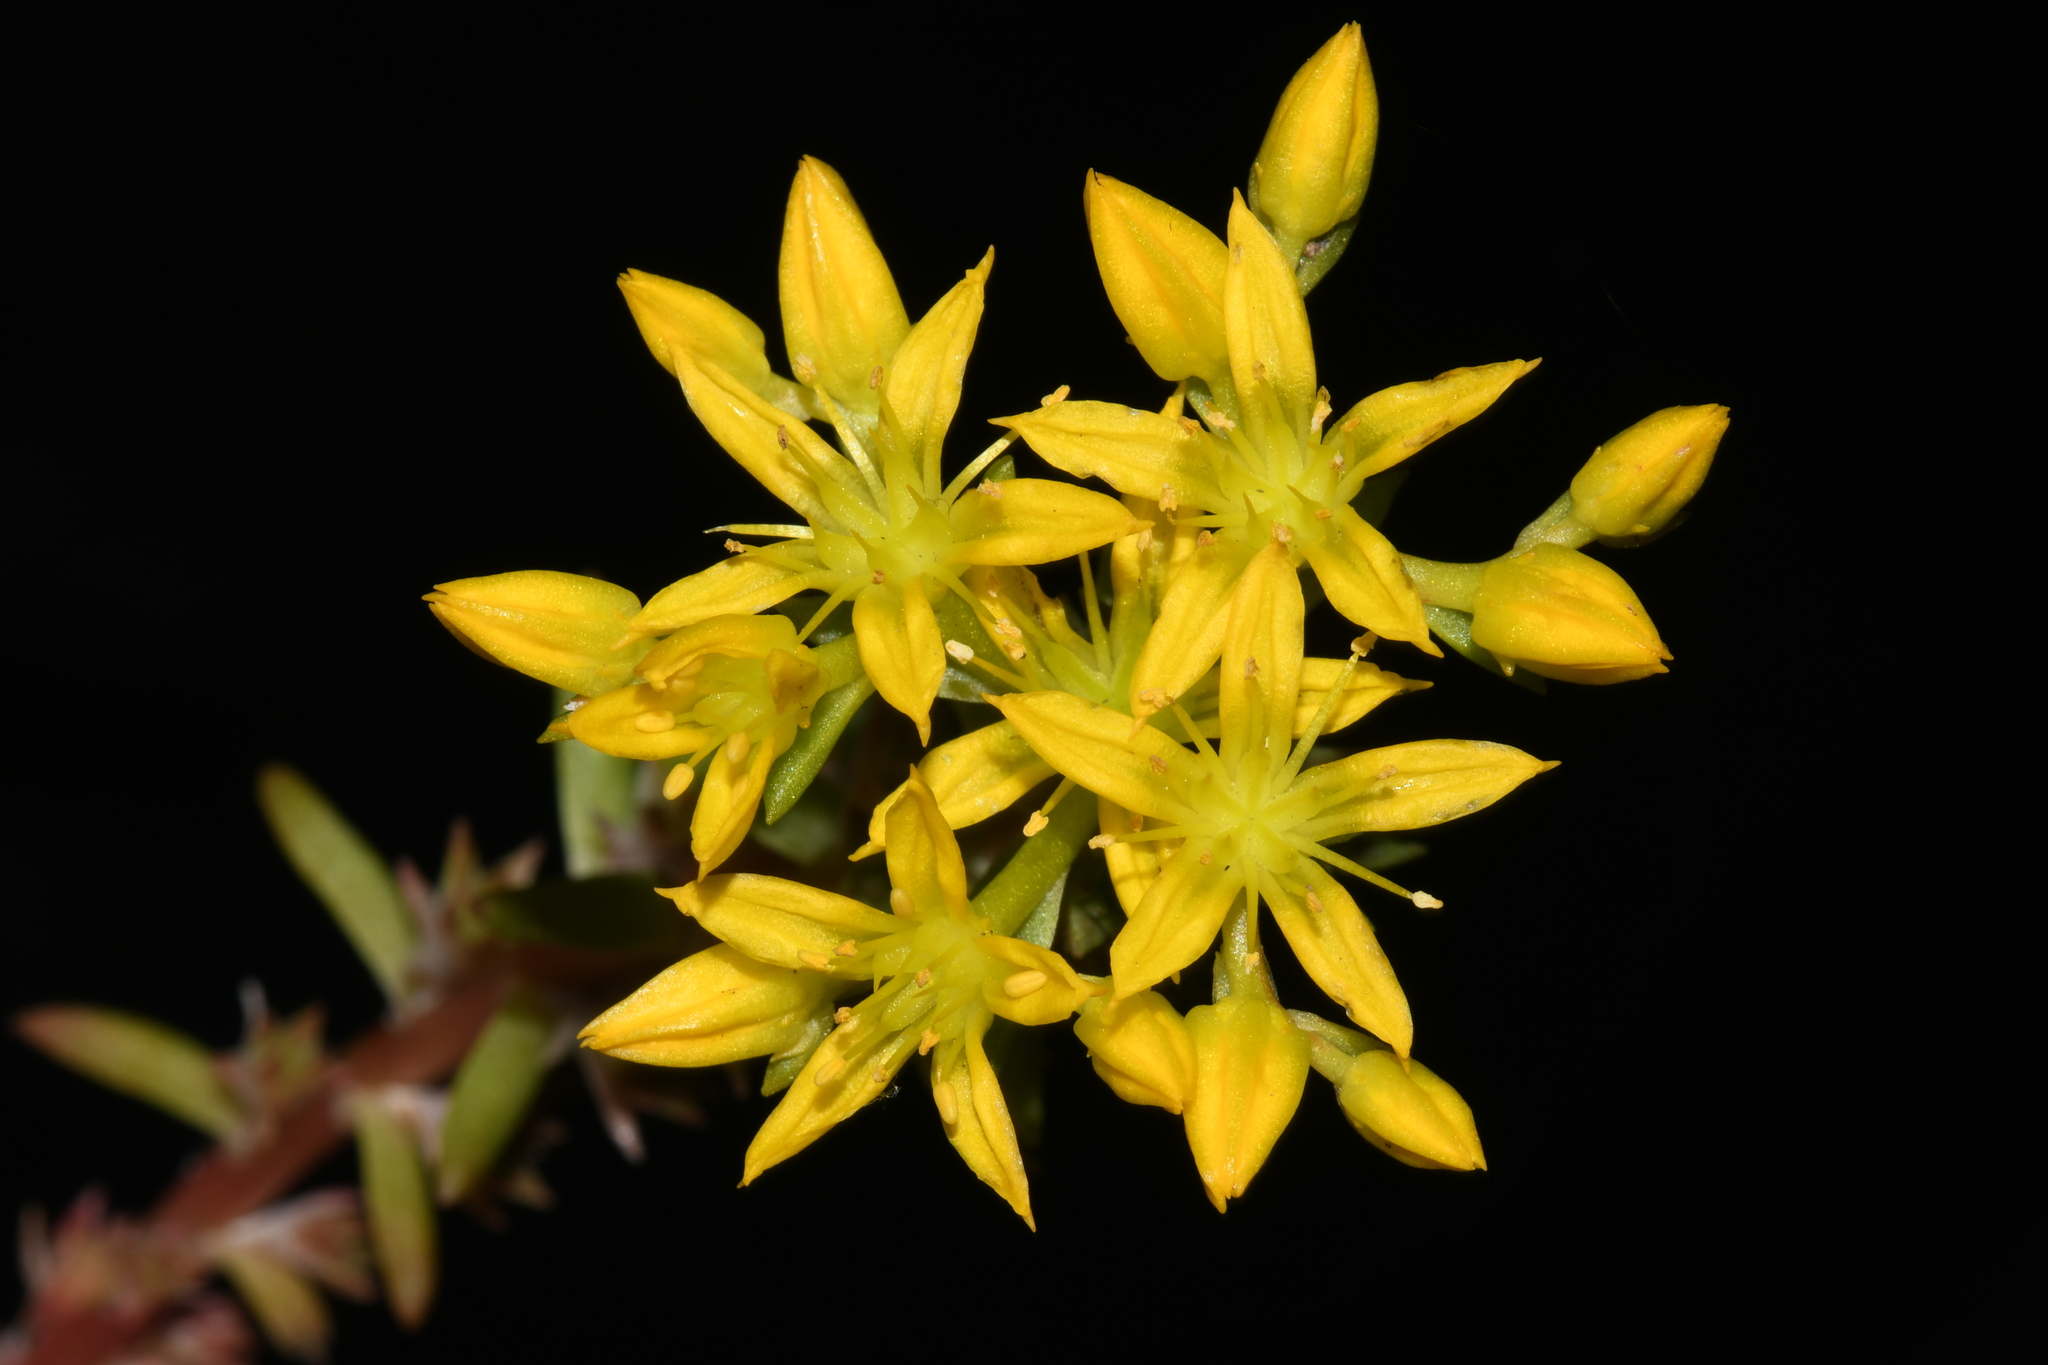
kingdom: Plantae
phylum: Tracheophyta
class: Magnoliopsida
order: Saxifragales
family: Crassulaceae
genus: Sedum
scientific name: Sedum stenopetalum
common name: Narrow-petaled stonecrop
